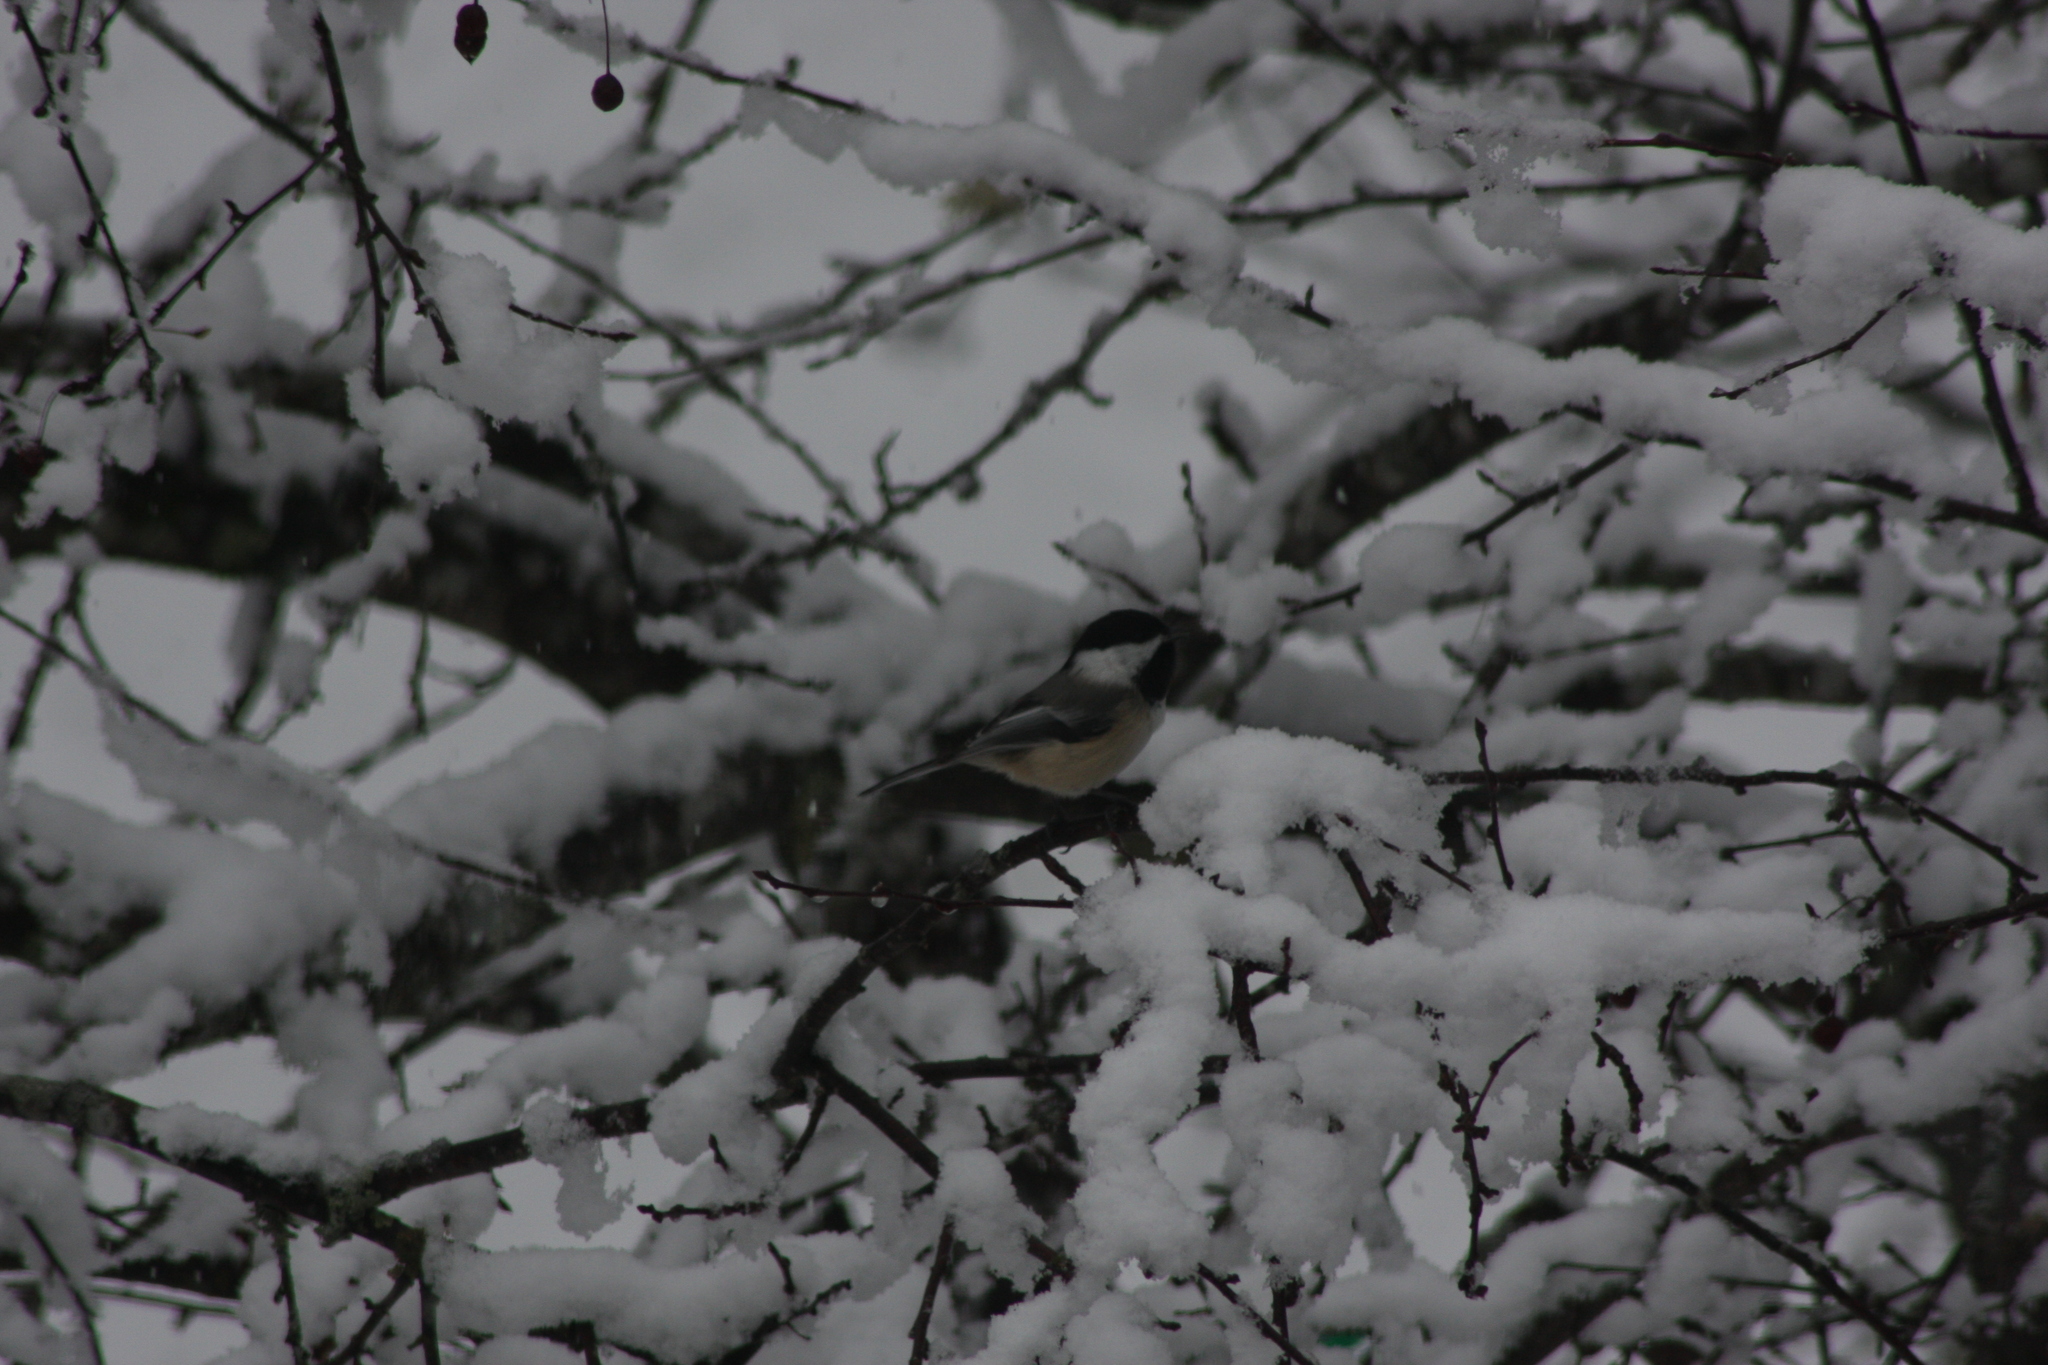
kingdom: Animalia
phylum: Chordata
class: Aves
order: Passeriformes
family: Paridae
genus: Poecile
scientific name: Poecile atricapillus
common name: Black-capped chickadee
